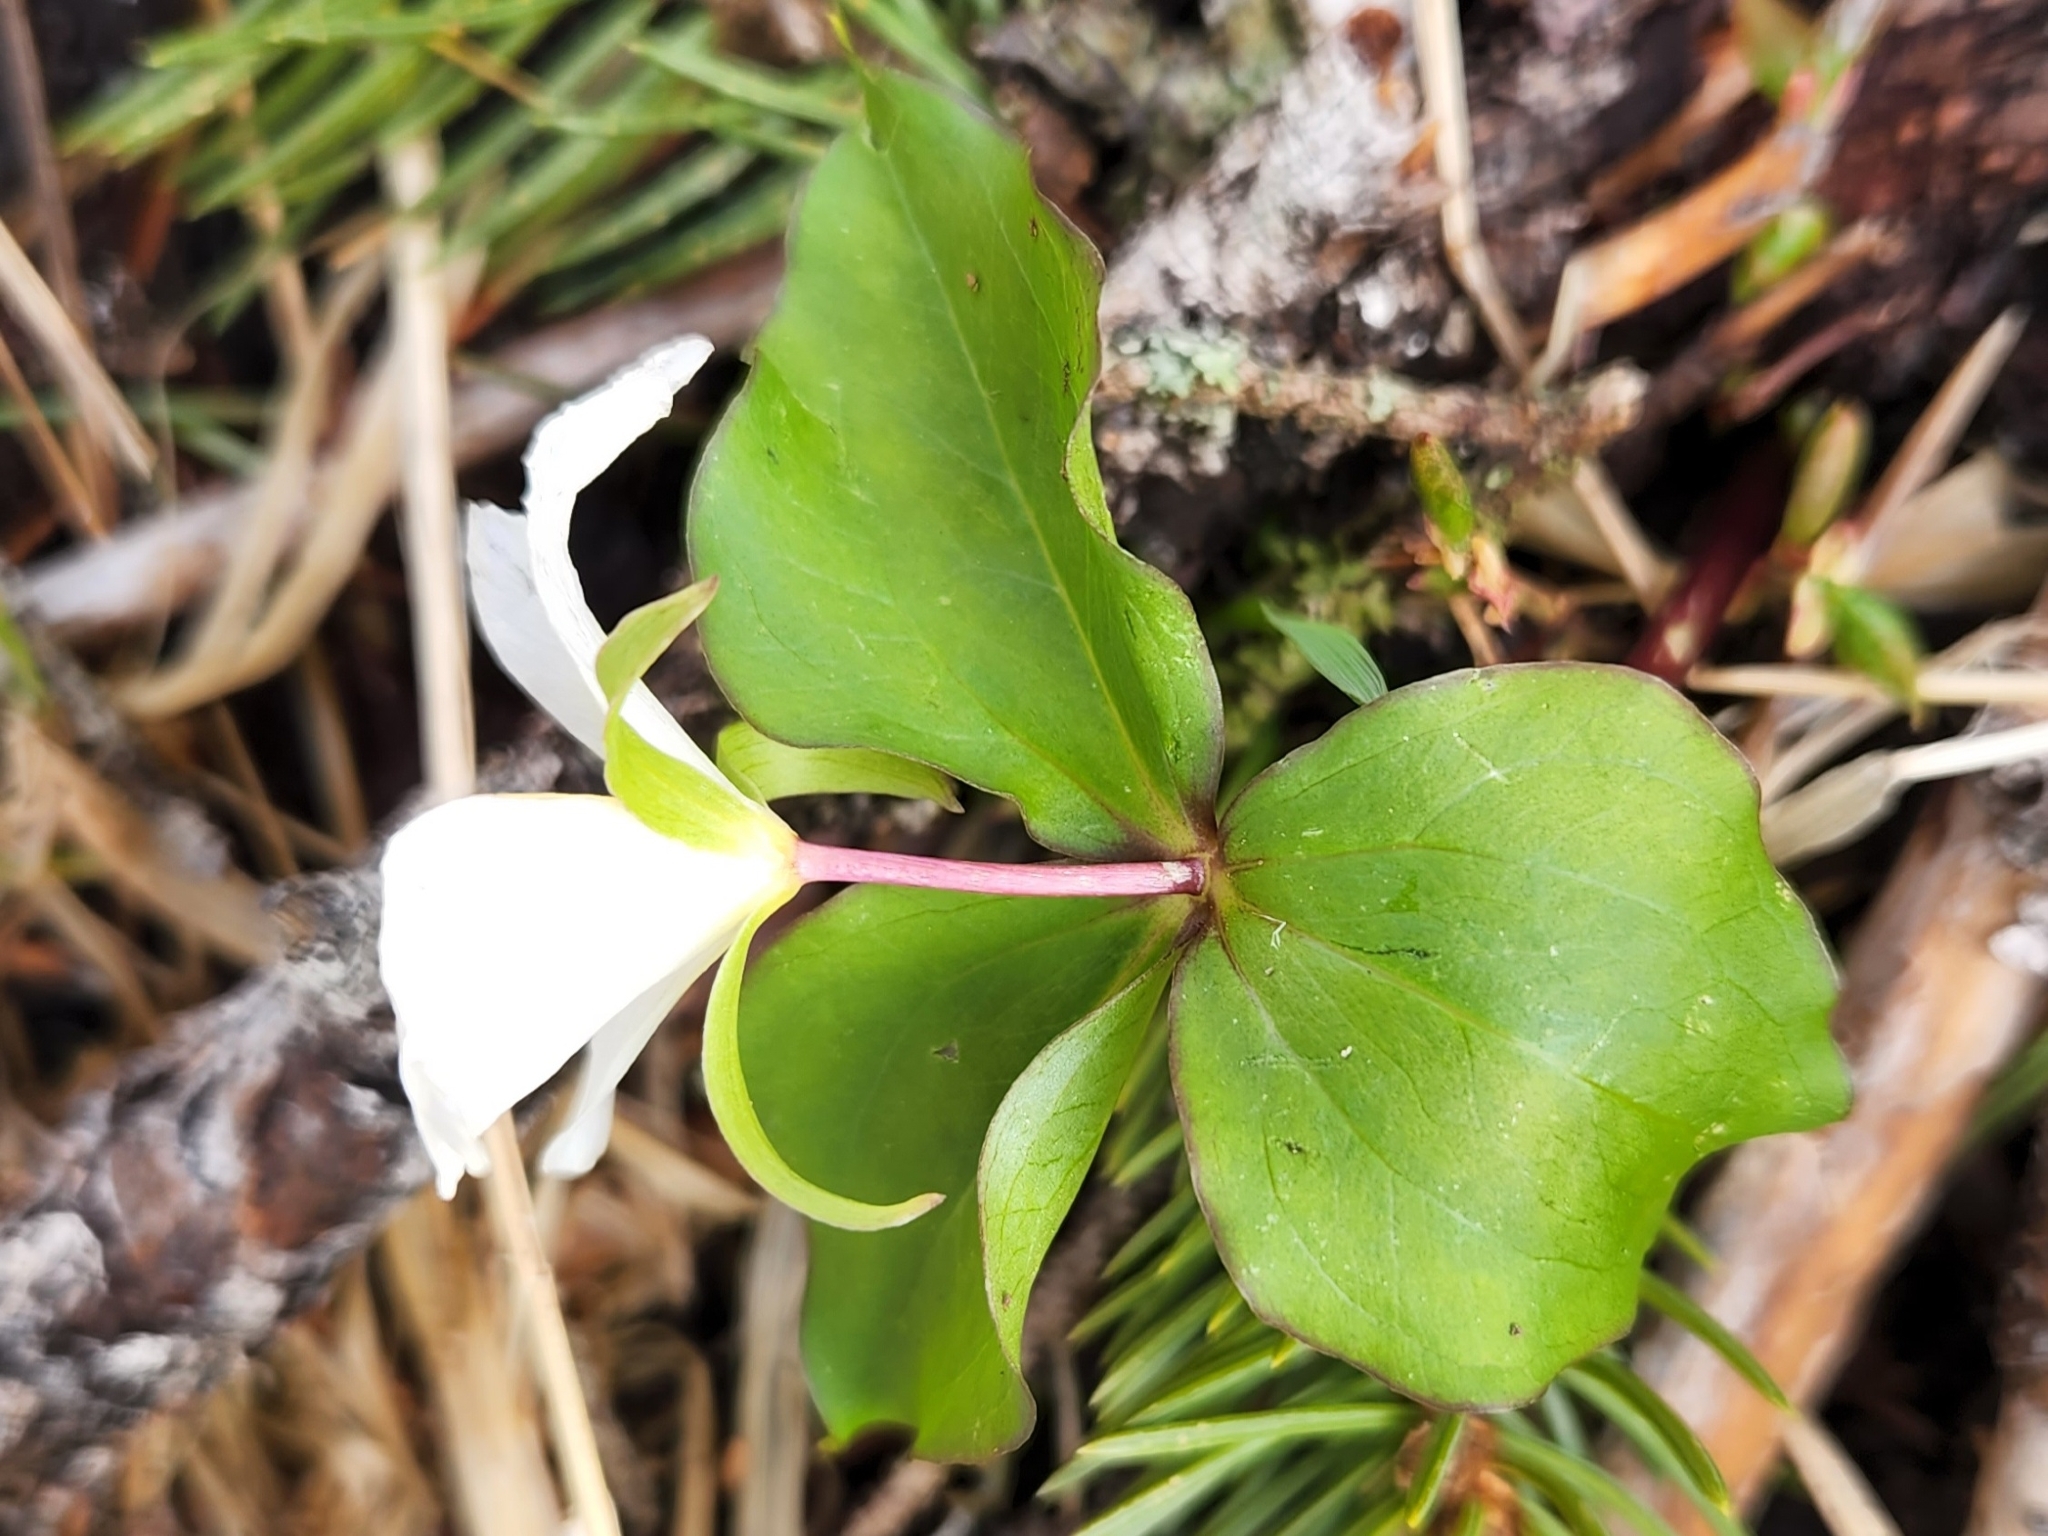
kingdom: Plantae
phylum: Tracheophyta
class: Liliopsida
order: Liliales
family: Melanthiaceae
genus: Trillium
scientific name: Trillium ovatum
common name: Pacific trillium
